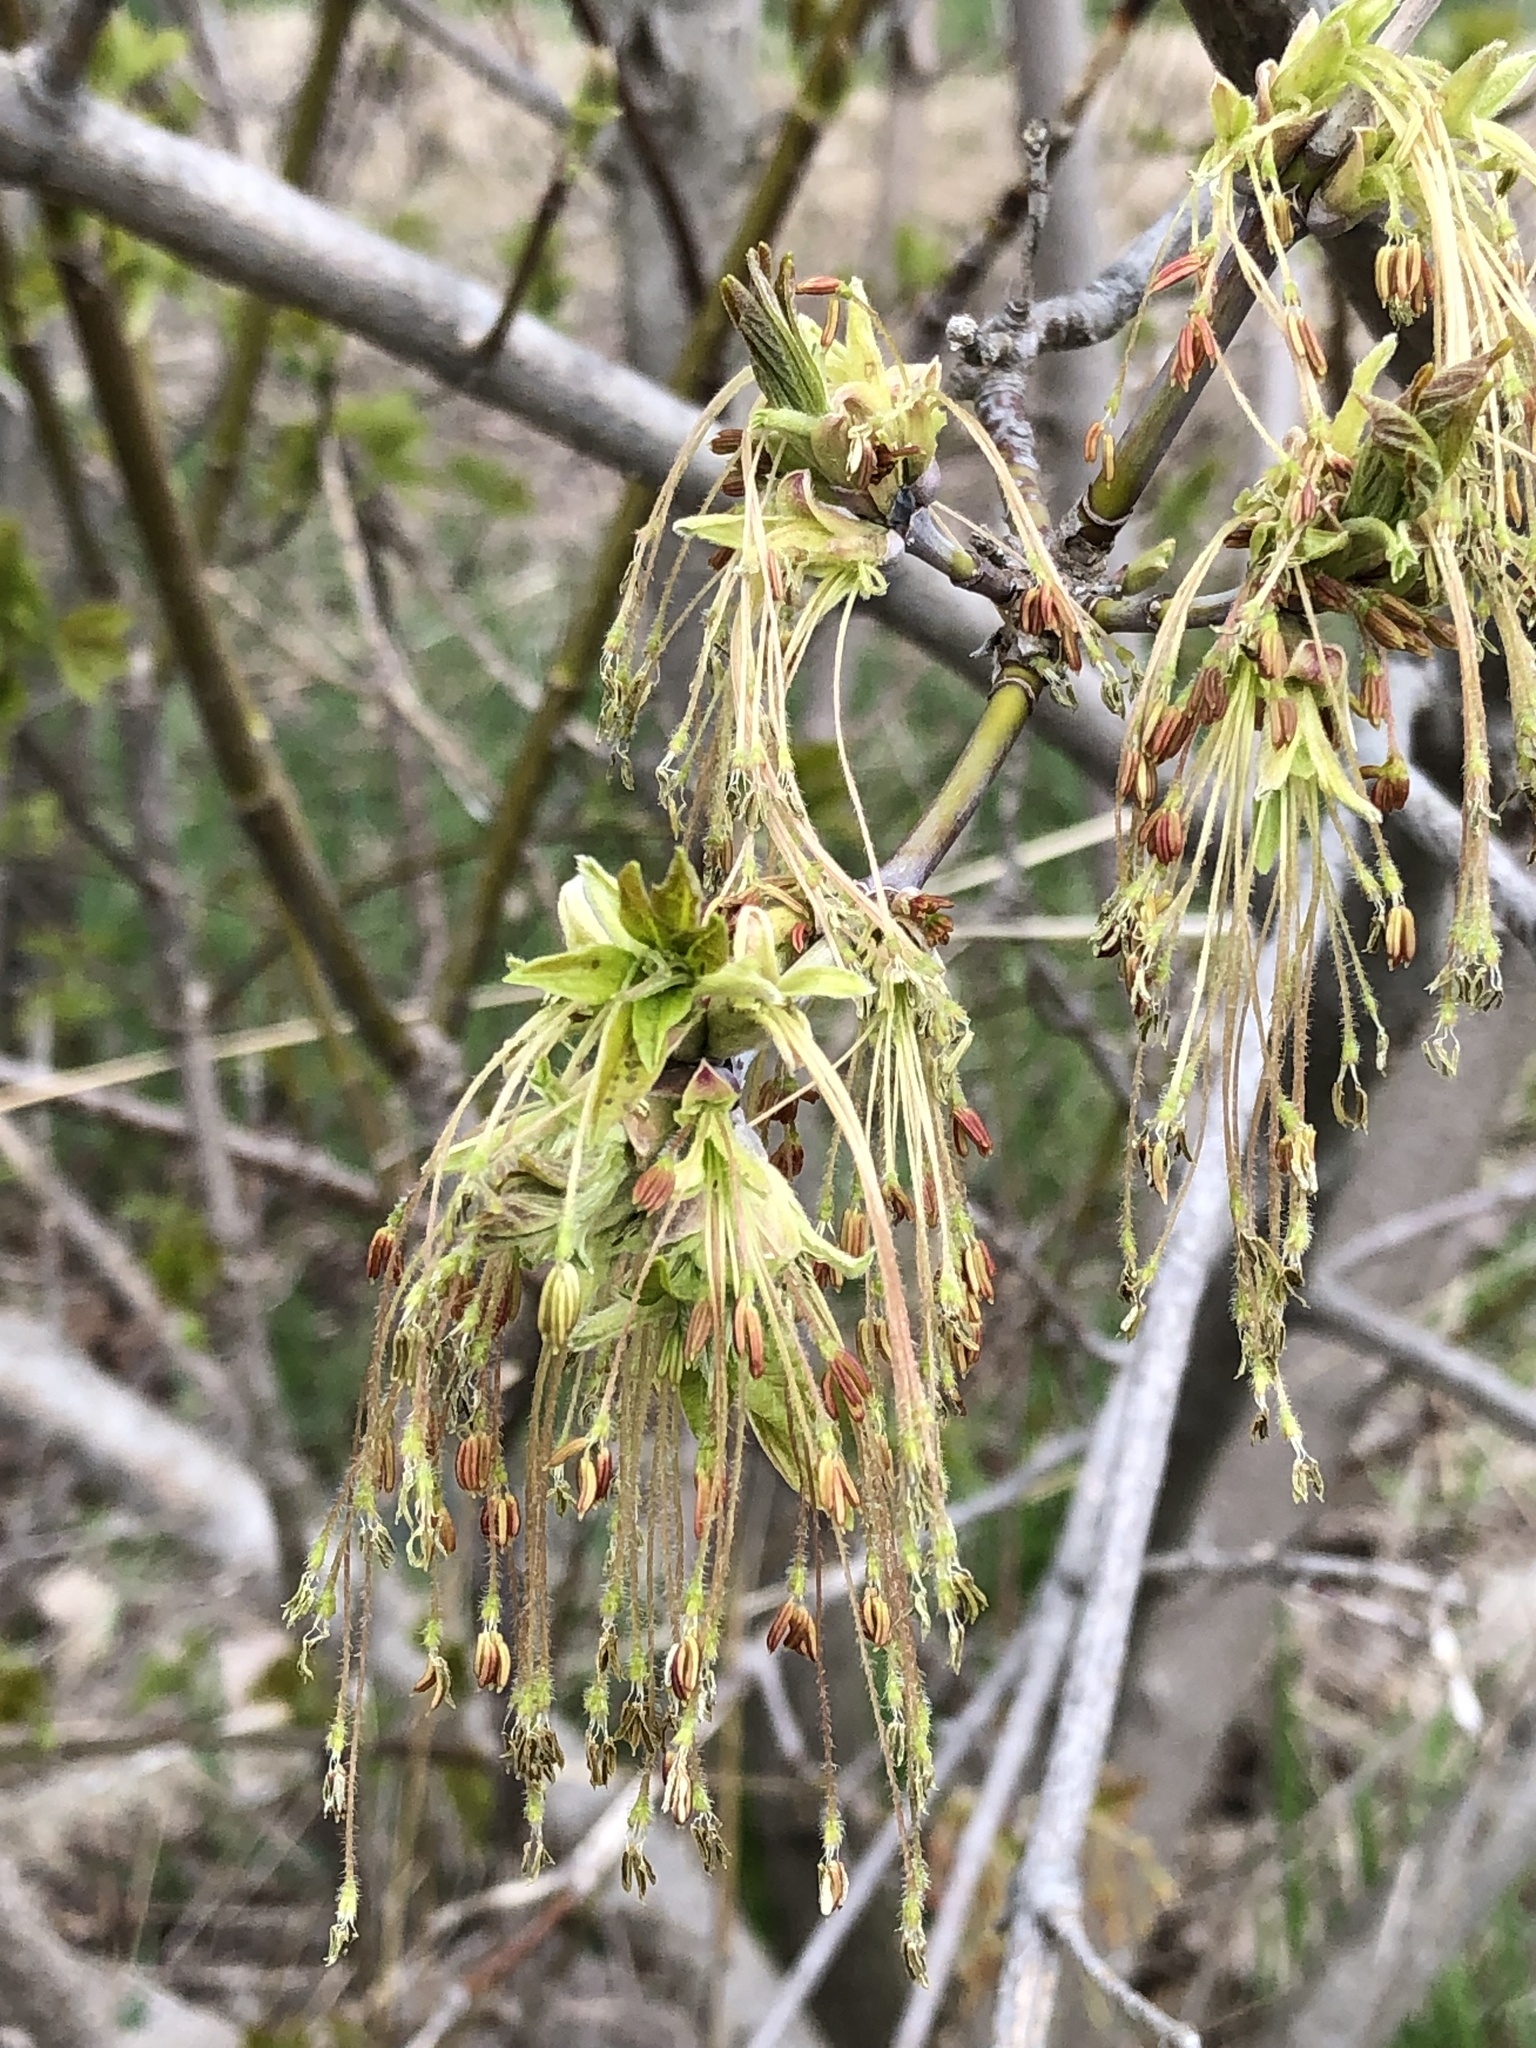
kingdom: Plantae
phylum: Tracheophyta
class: Magnoliopsida
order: Sapindales
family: Sapindaceae
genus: Acer
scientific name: Acer negundo
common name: Ashleaf maple
